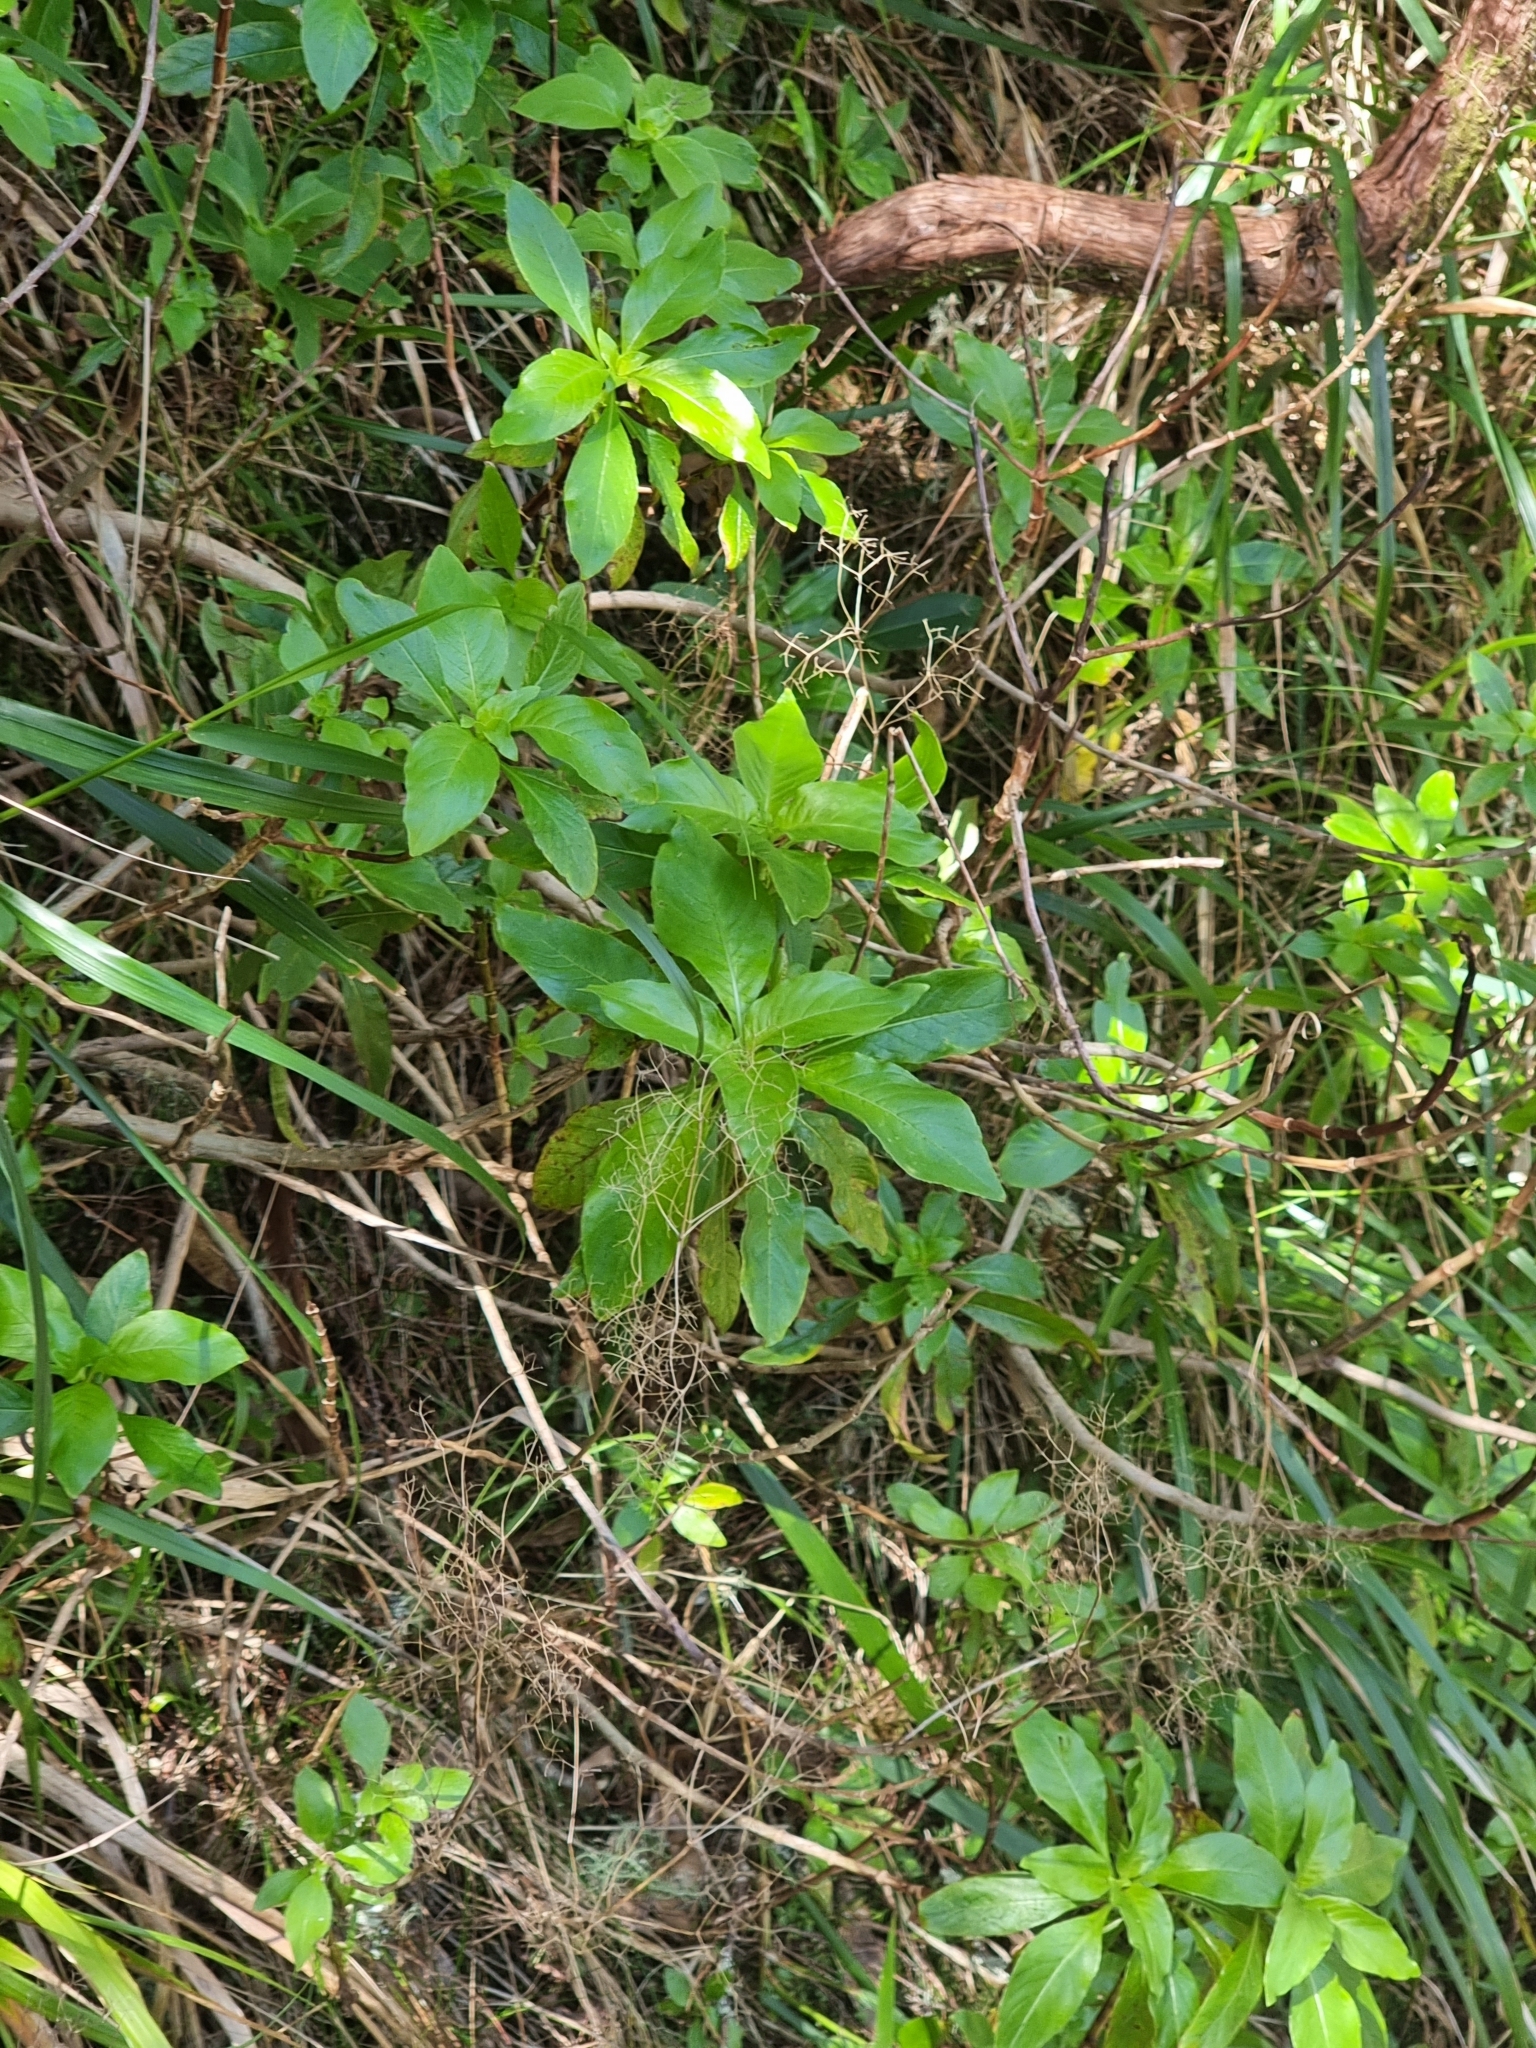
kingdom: Plantae
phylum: Tracheophyta
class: Magnoliopsida
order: Gentianales
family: Rubiaceae
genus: Phyllis
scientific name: Phyllis nobla
